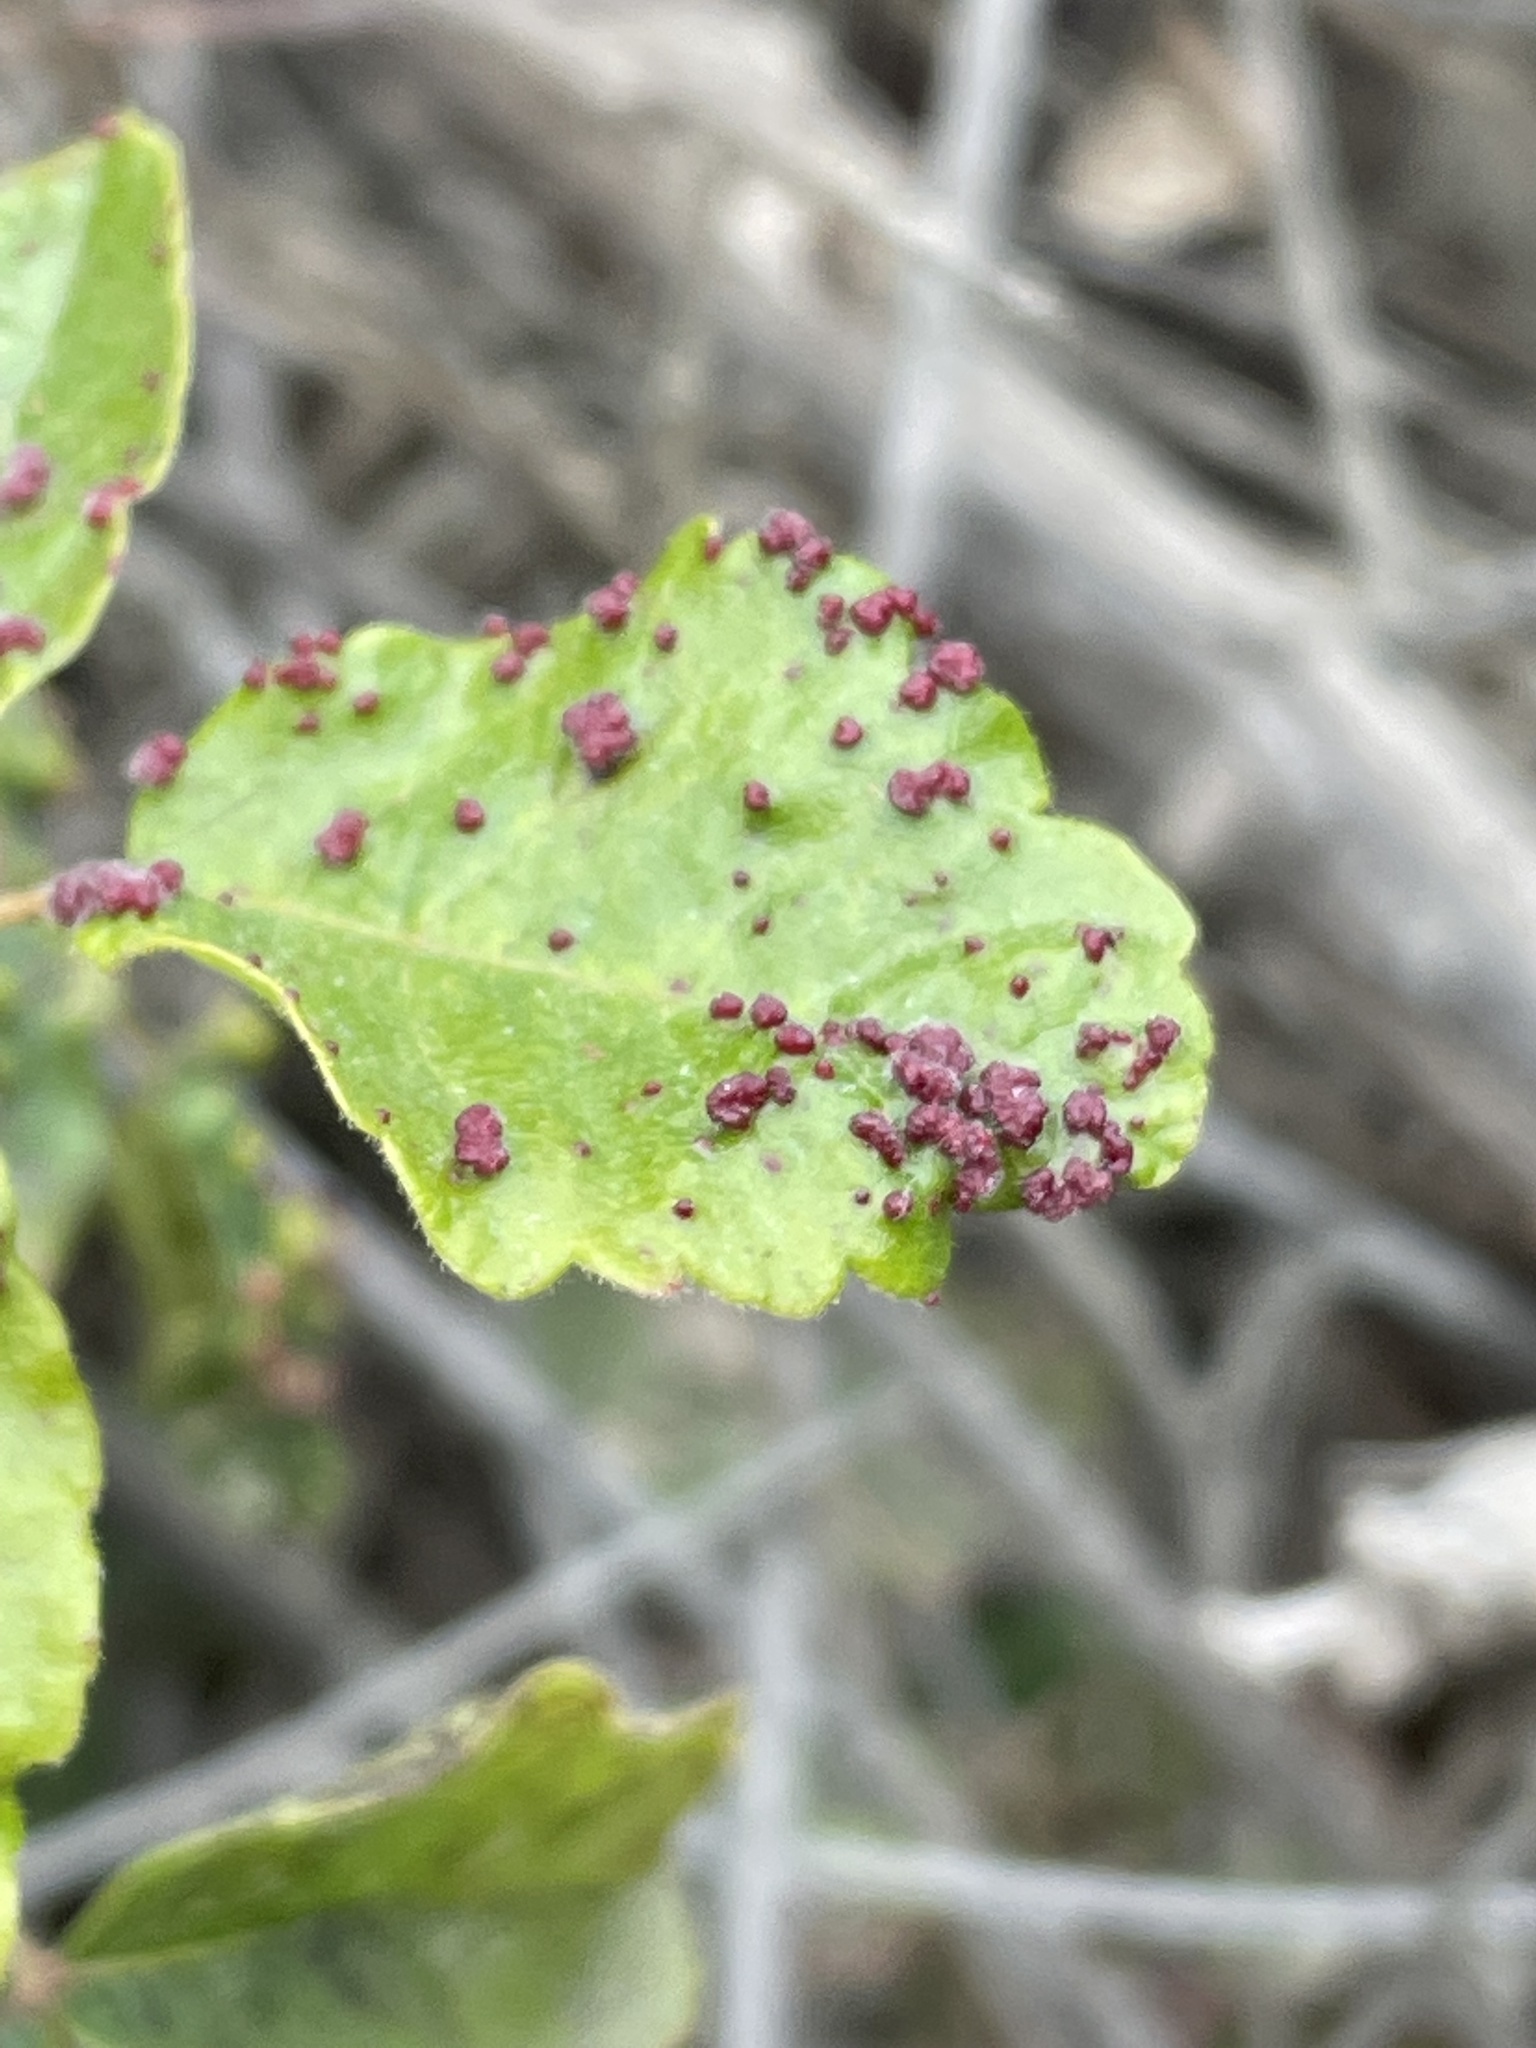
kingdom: Animalia
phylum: Arthropoda
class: Arachnida
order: Trombidiformes
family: Eriophyidae
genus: Aculops
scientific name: Aculops
